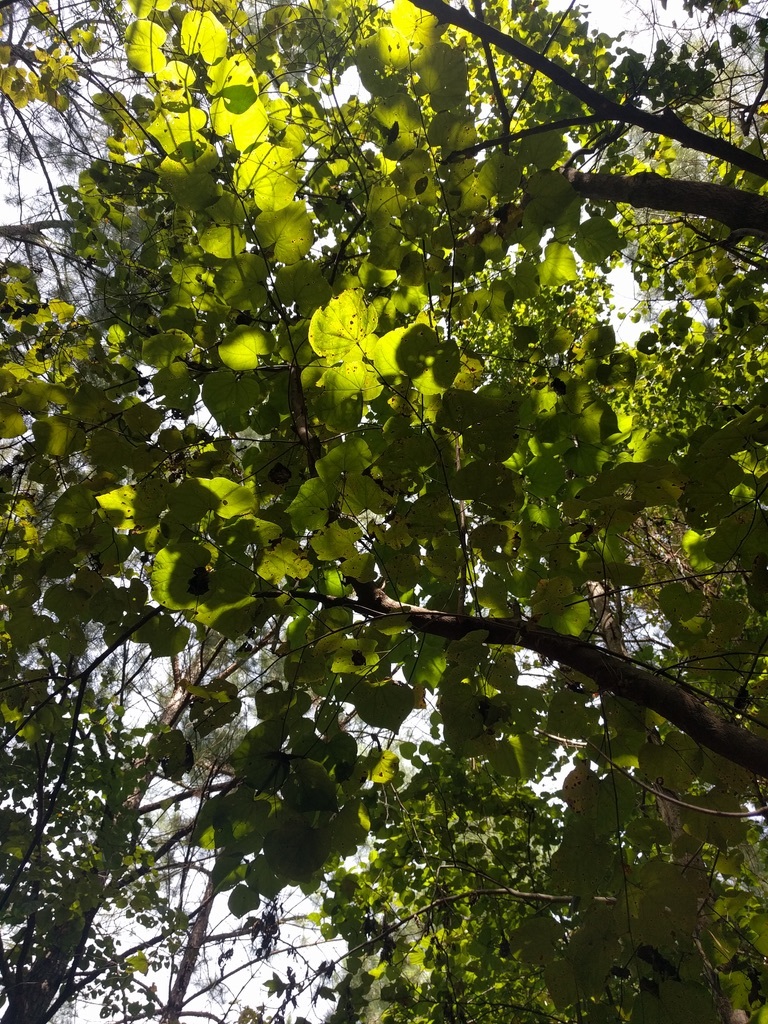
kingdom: Plantae
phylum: Tracheophyta
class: Magnoliopsida
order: Fabales
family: Fabaceae
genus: Cercis
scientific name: Cercis canadensis
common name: Eastern redbud
